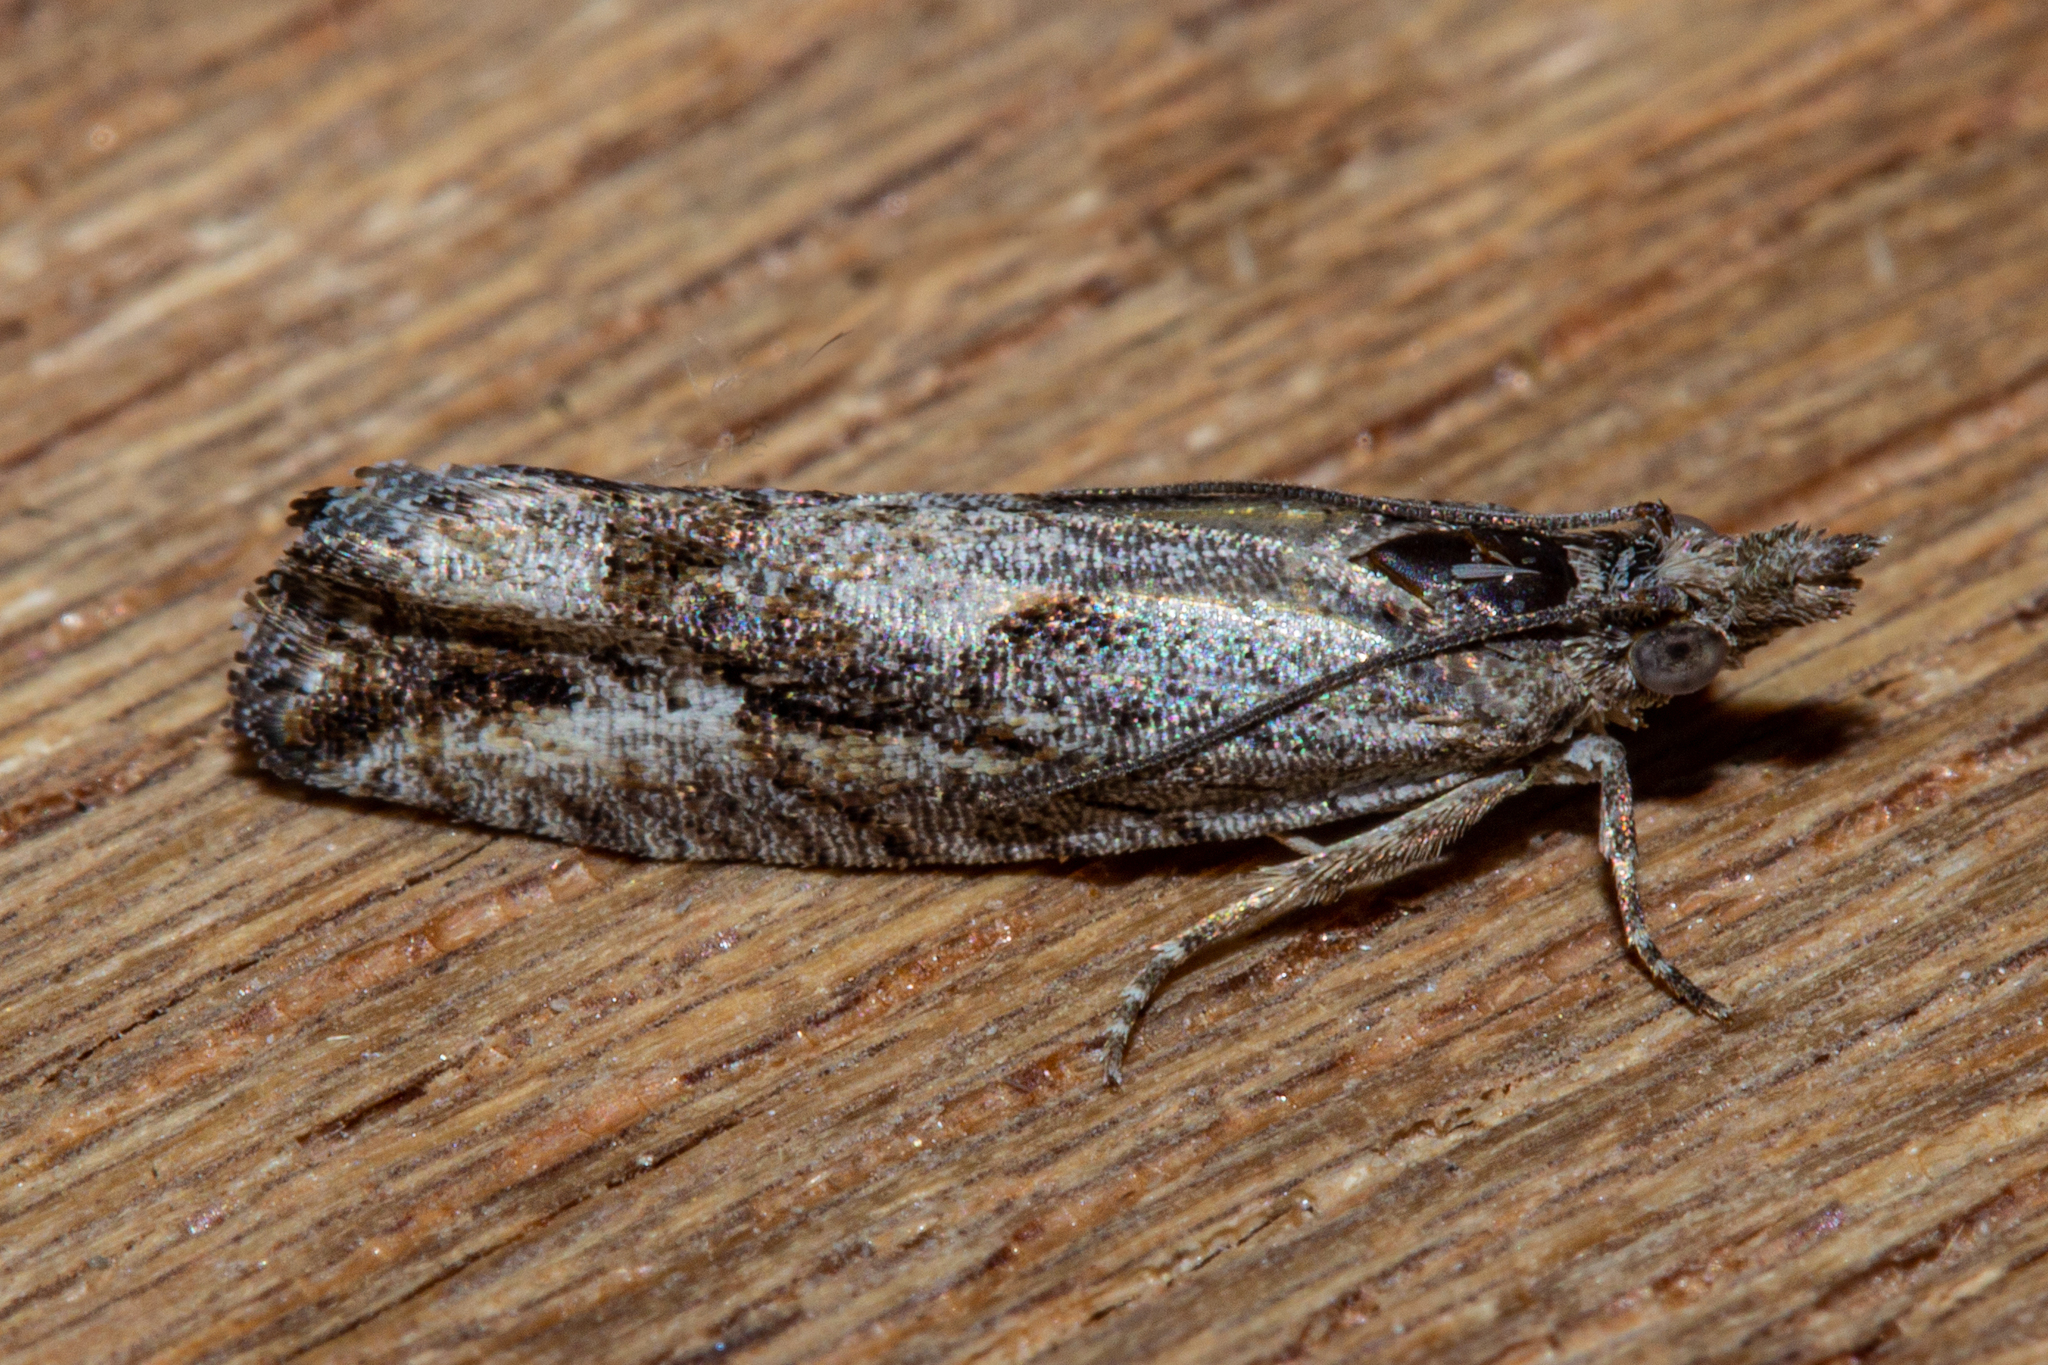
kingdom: Animalia
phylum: Arthropoda
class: Insecta
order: Lepidoptera
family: Tortricidae
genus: Strepsicrates
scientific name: Strepsicrates ejectana
